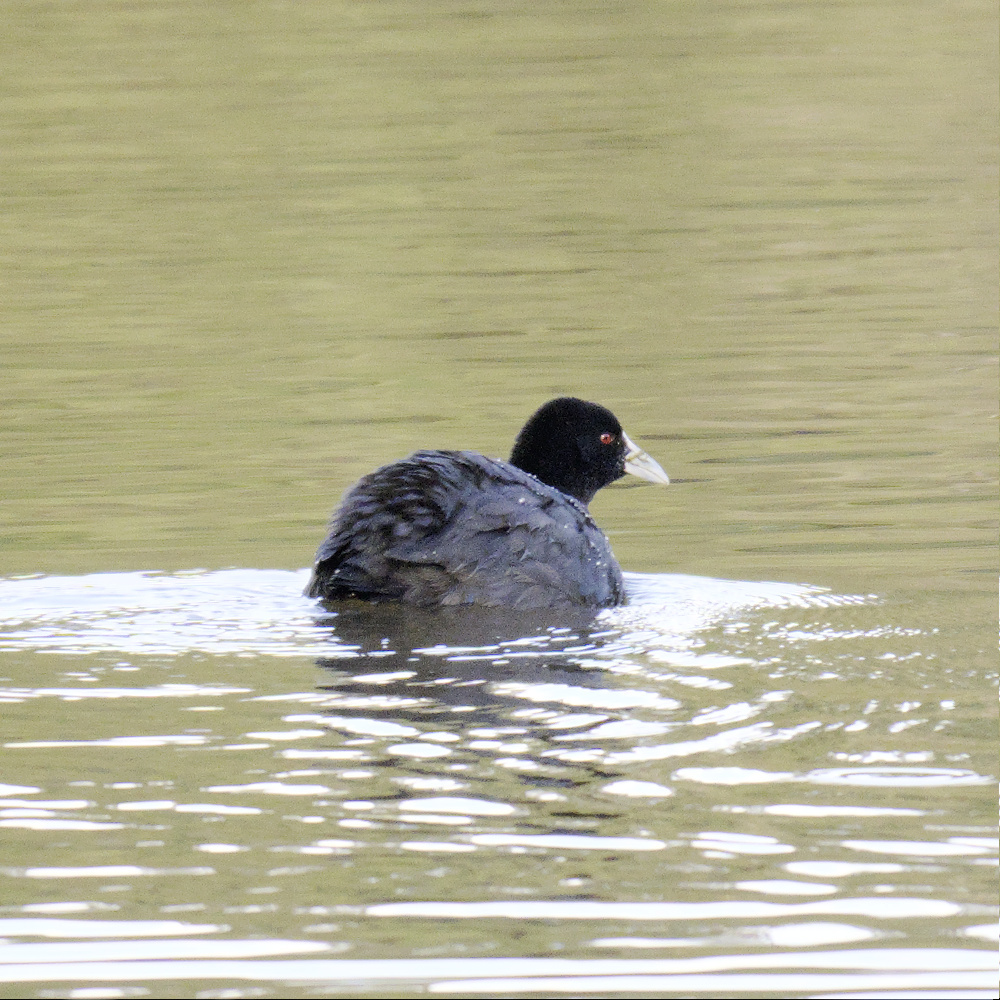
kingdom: Animalia
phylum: Chordata
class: Aves
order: Gruiformes
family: Rallidae
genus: Fulica
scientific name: Fulica atra
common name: Eurasian coot
